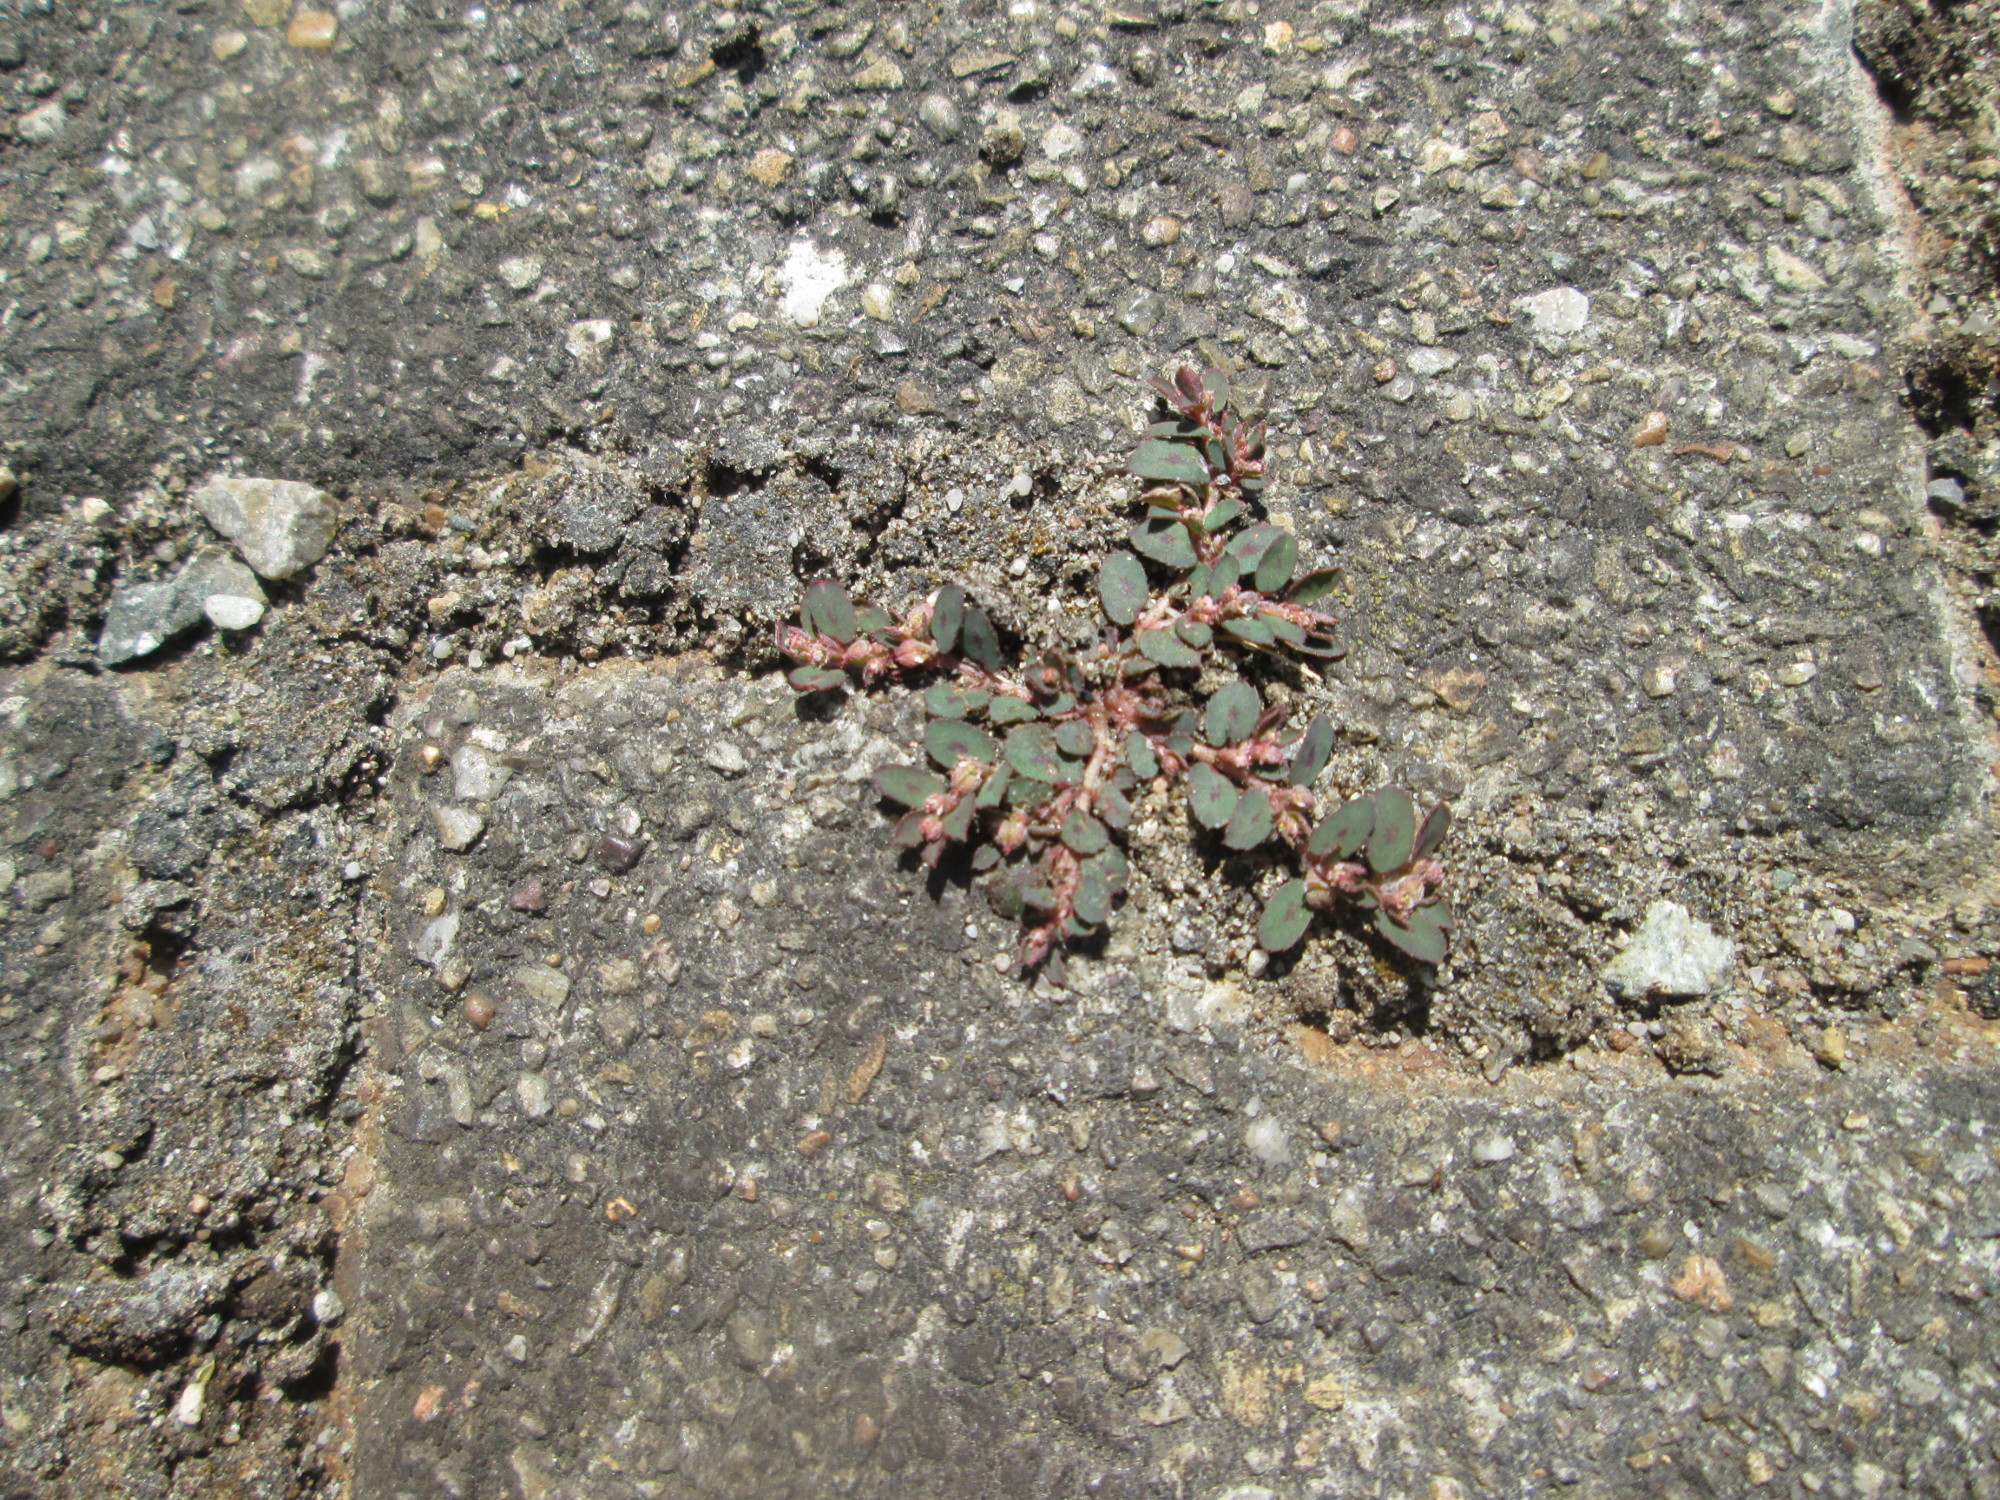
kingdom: Plantae
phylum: Tracheophyta
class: Magnoliopsida
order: Malpighiales
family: Euphorbiaceae
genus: Euphorbia
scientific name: Euphorbia maculata
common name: Spotted spurge
